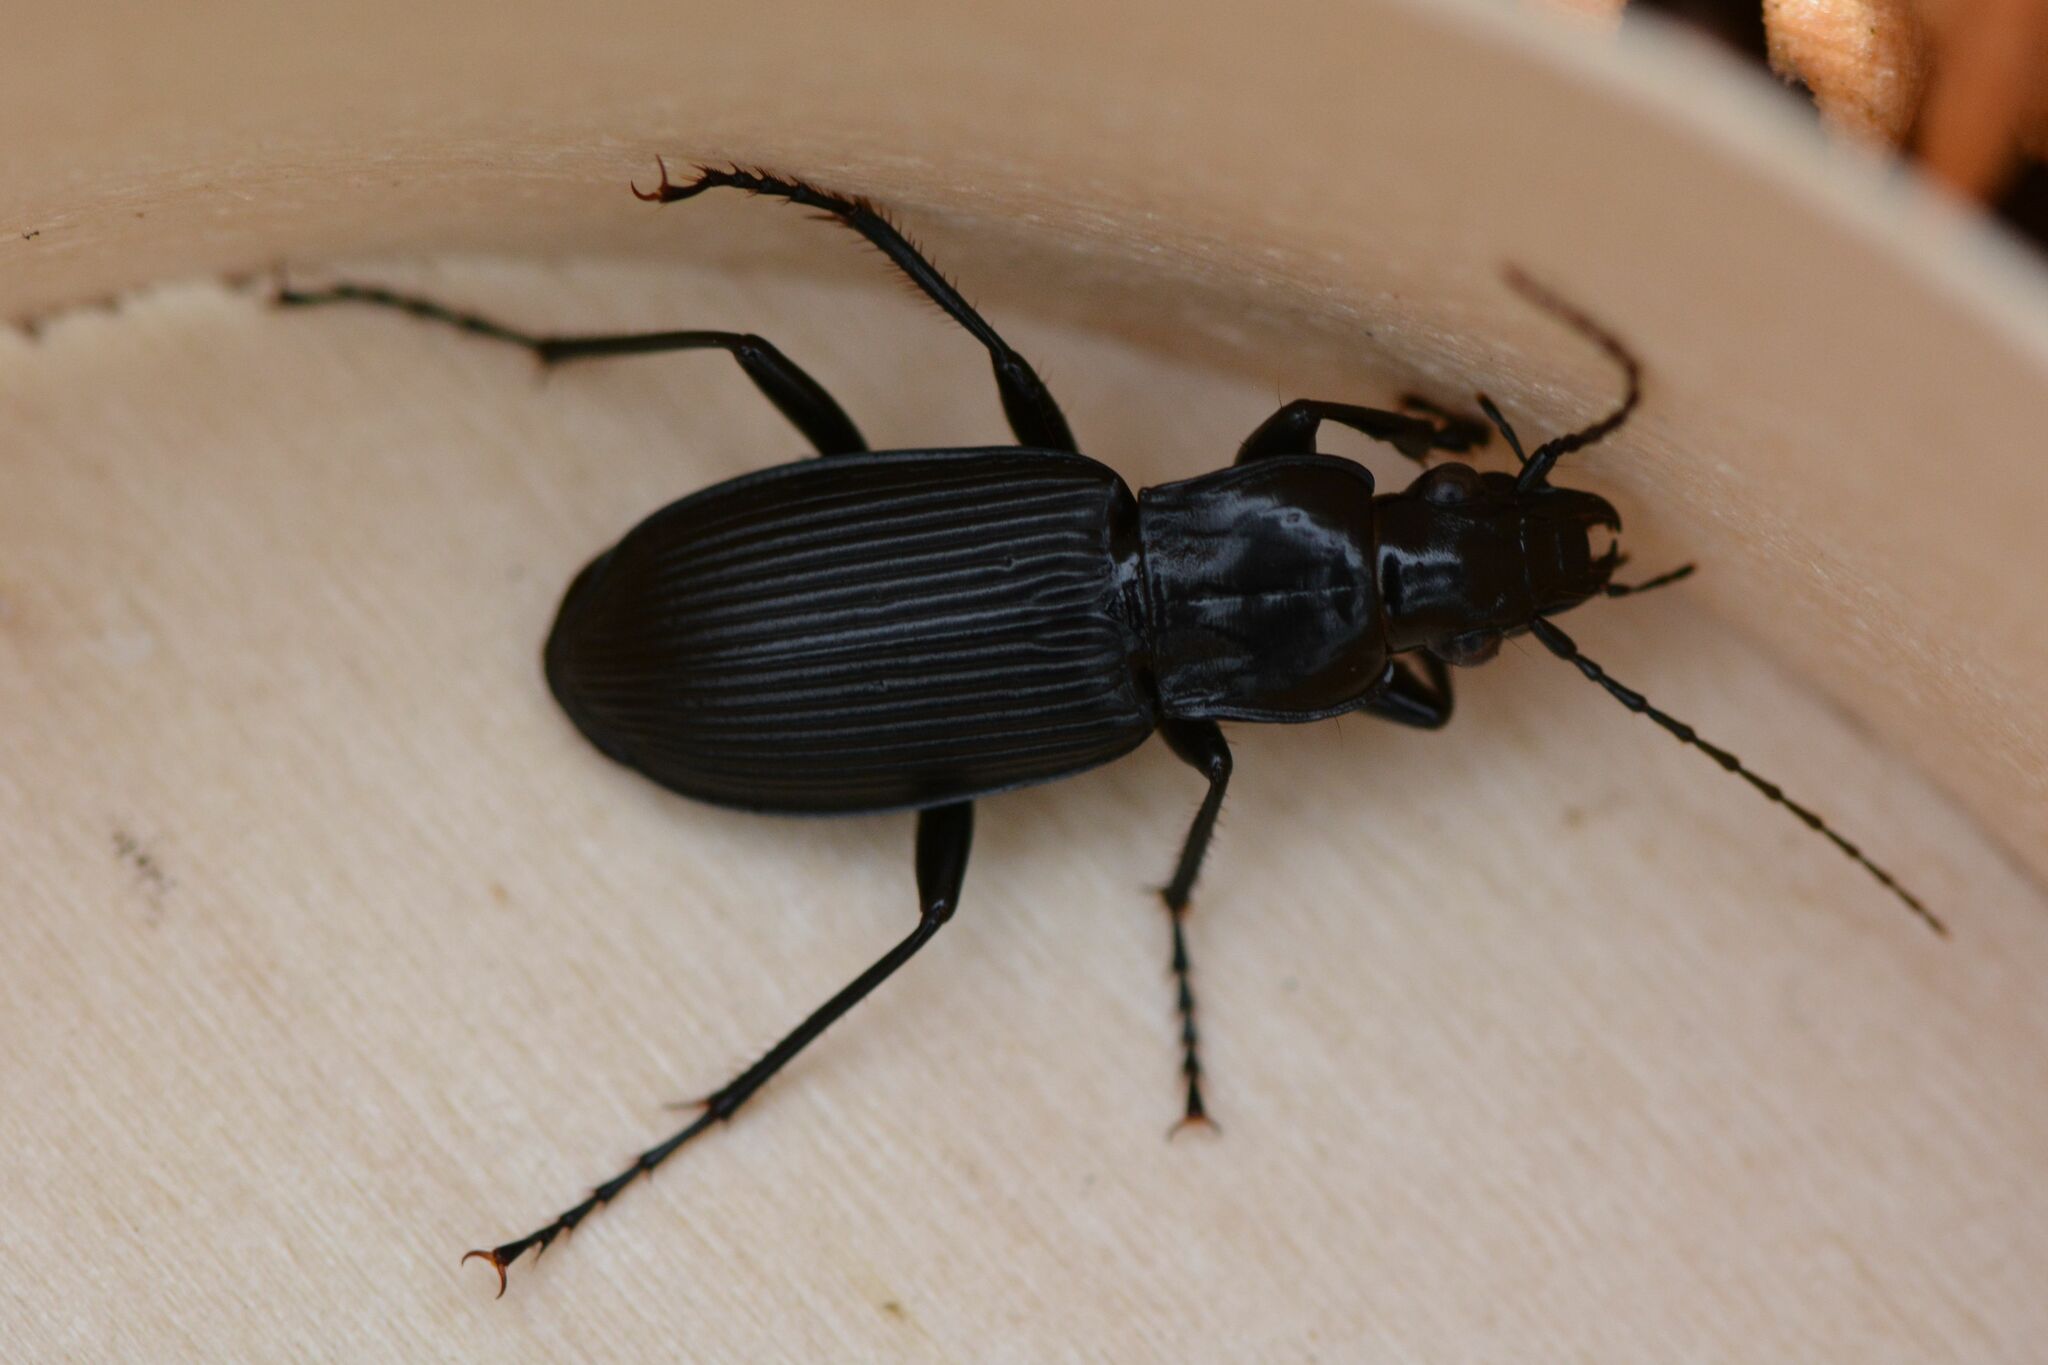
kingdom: Animalia
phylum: Arthropoda
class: Insecta
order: Coleoptera
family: Carabidae
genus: Pterostichus
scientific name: Pterostichus niger
